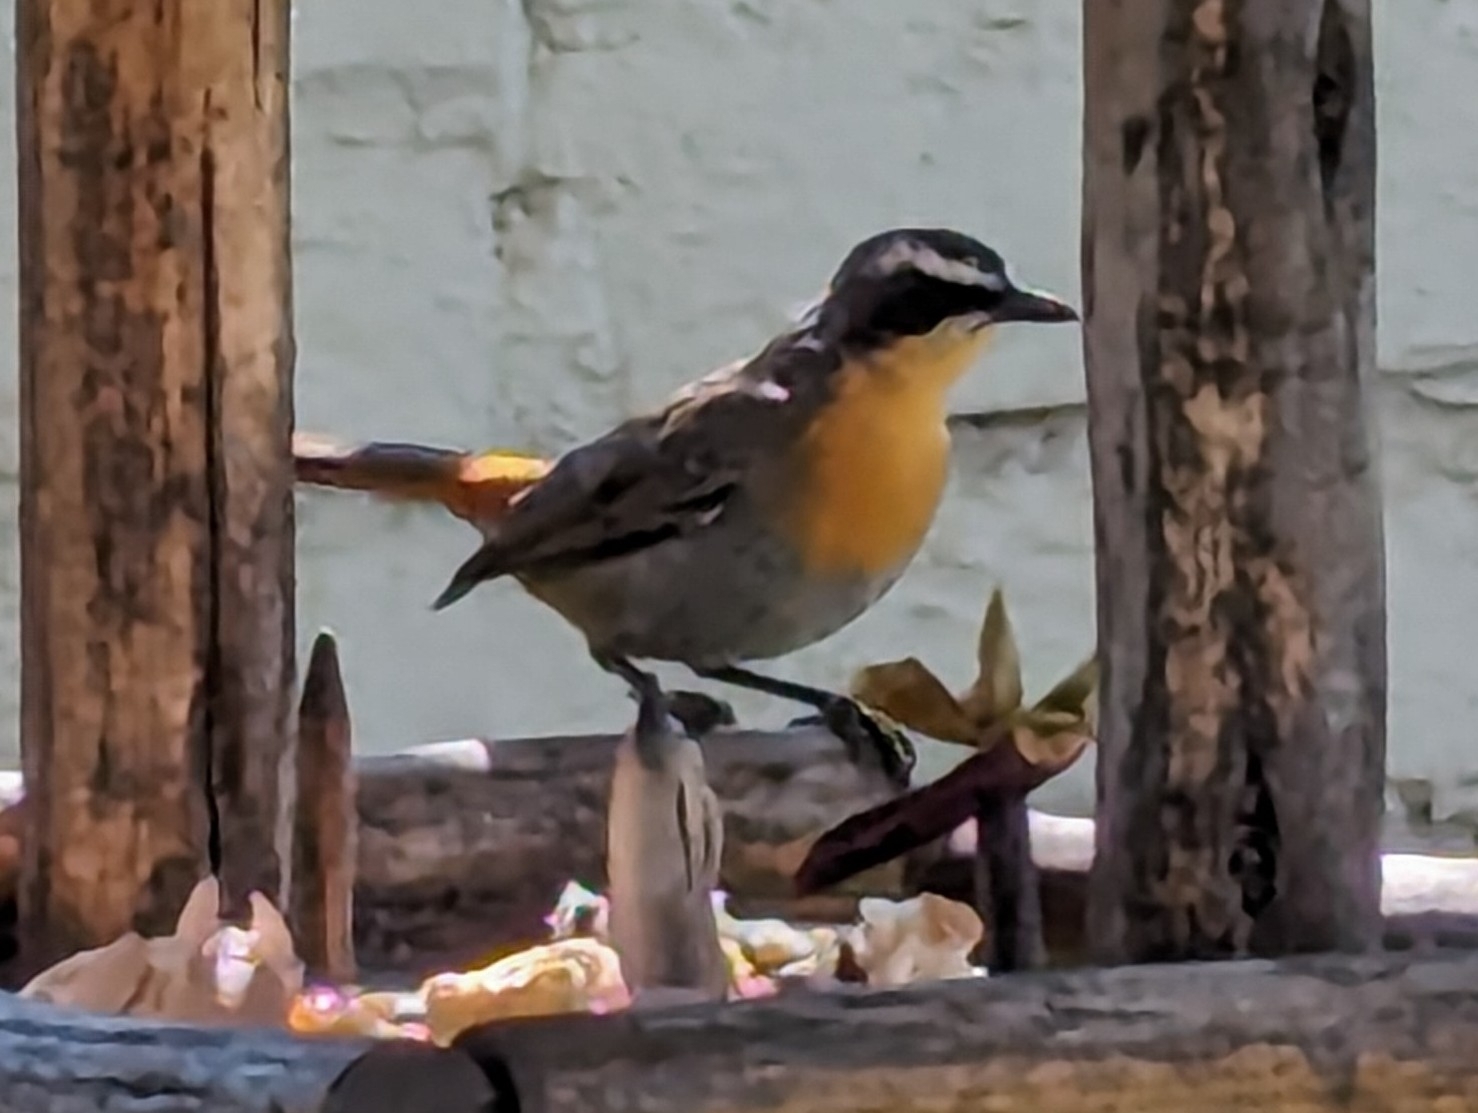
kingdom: Animalia
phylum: Chordata
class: Aves
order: Passeriformes
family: Muscicapidae
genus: Cossypha
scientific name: Cossypha caffra
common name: Cape robin-chat
